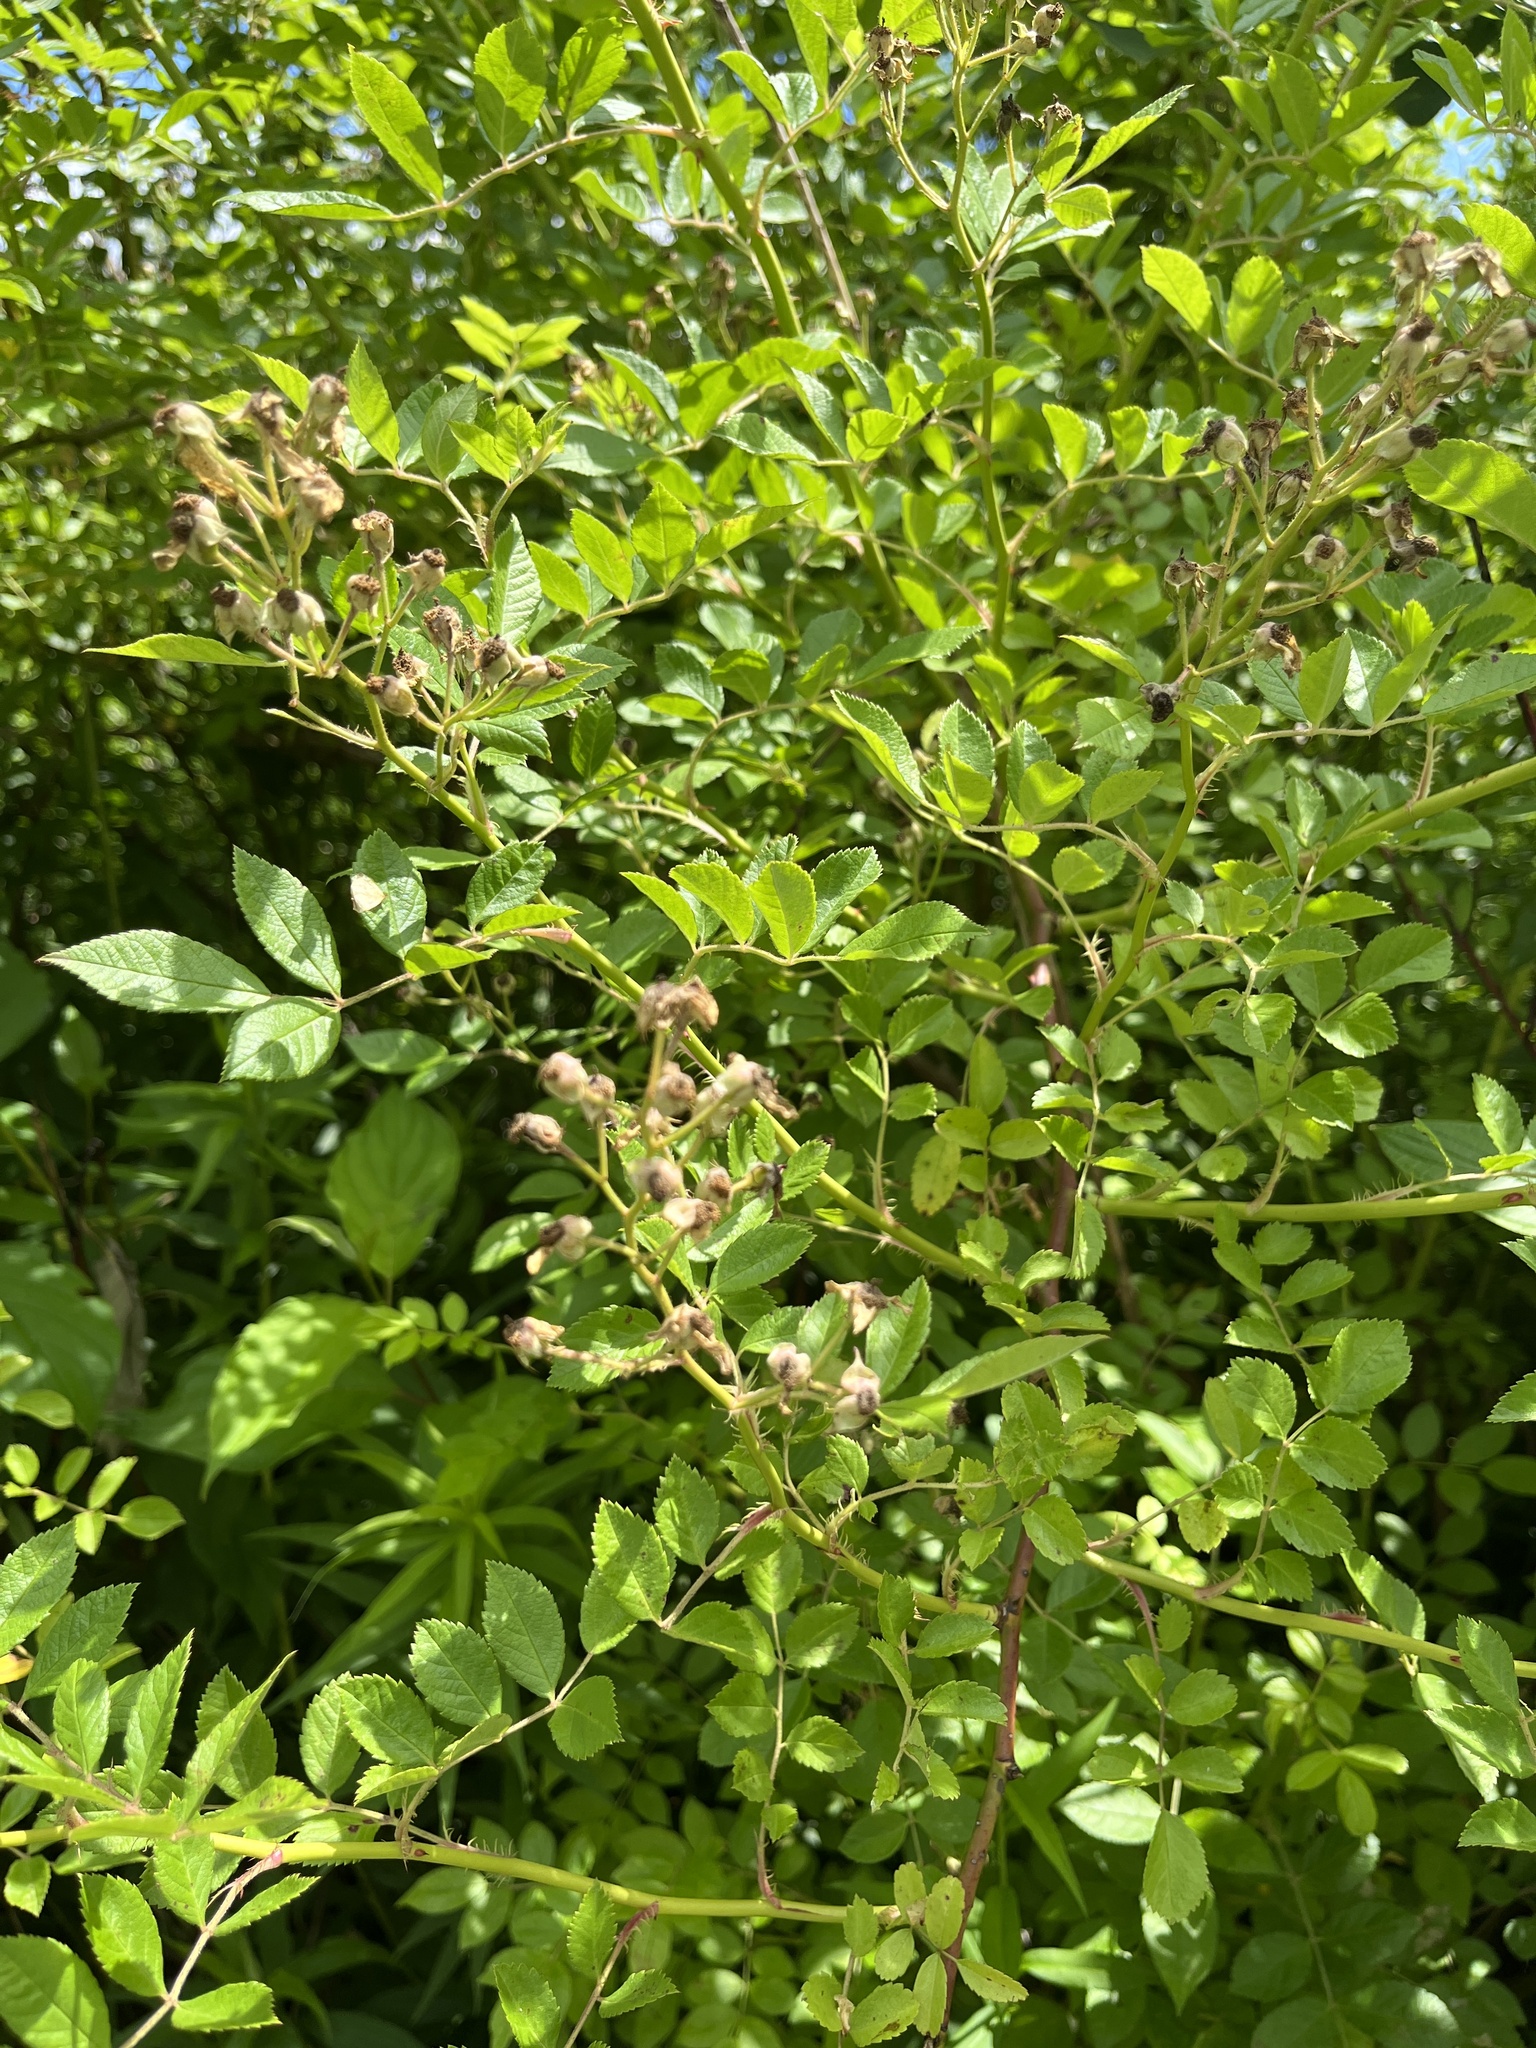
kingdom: Plantae
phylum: Tracheophyta
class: Magnoliopsida
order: Rosales
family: Rosaceae
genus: Rosa
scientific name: Rosa multiflora
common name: Multiflora rose
